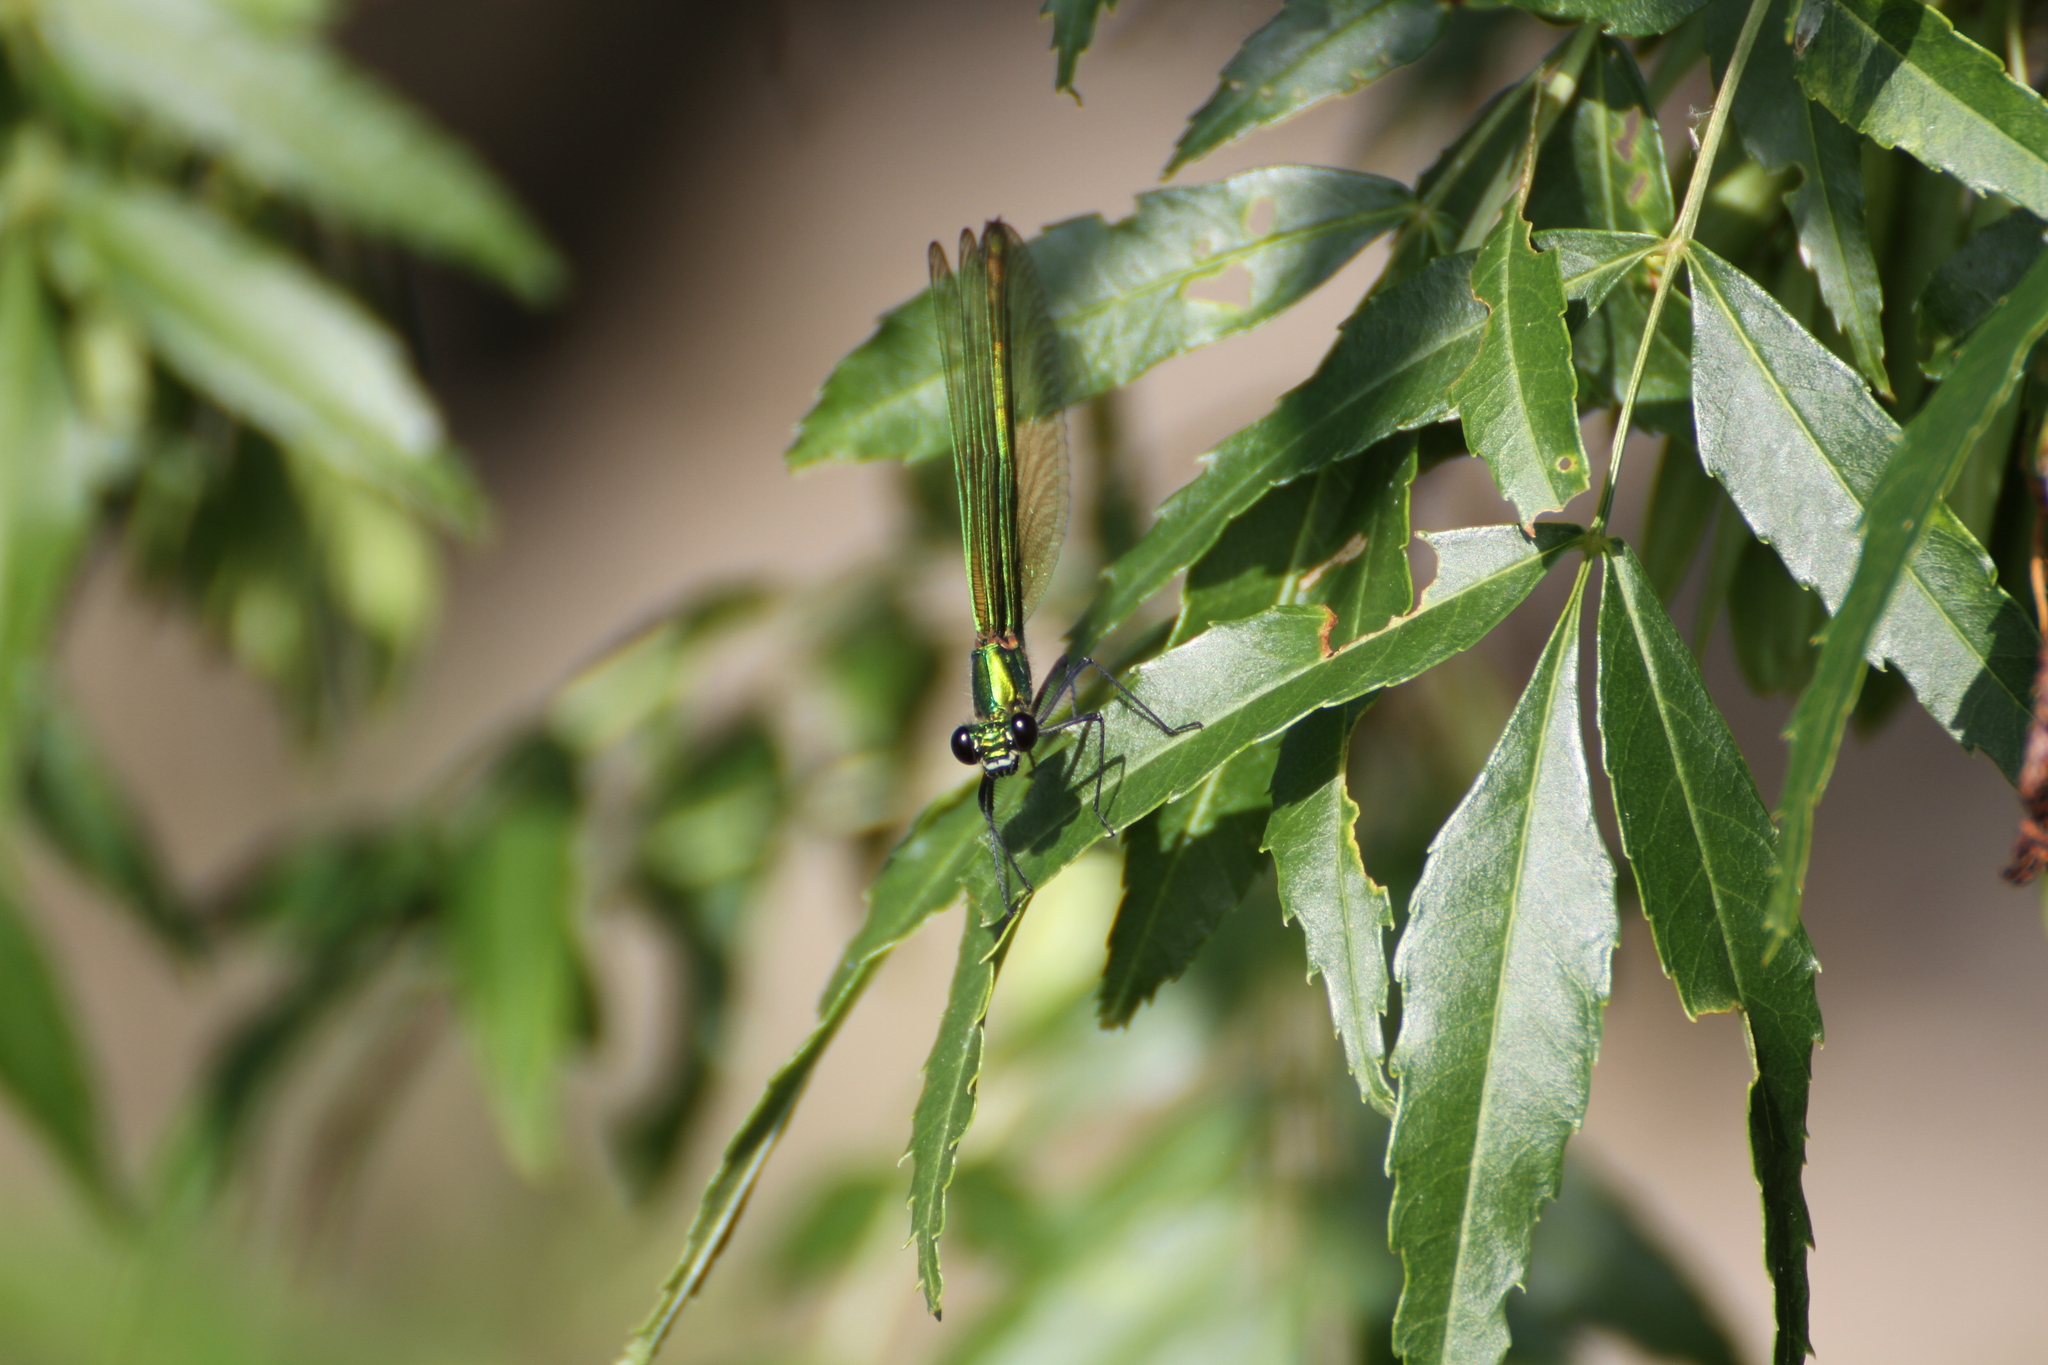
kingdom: Animalia
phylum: Arthropoda
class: Insecta
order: Odonata
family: Calopterygidae
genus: Calopteryx
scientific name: Calopteryx splendens
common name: Banded demoiselle
